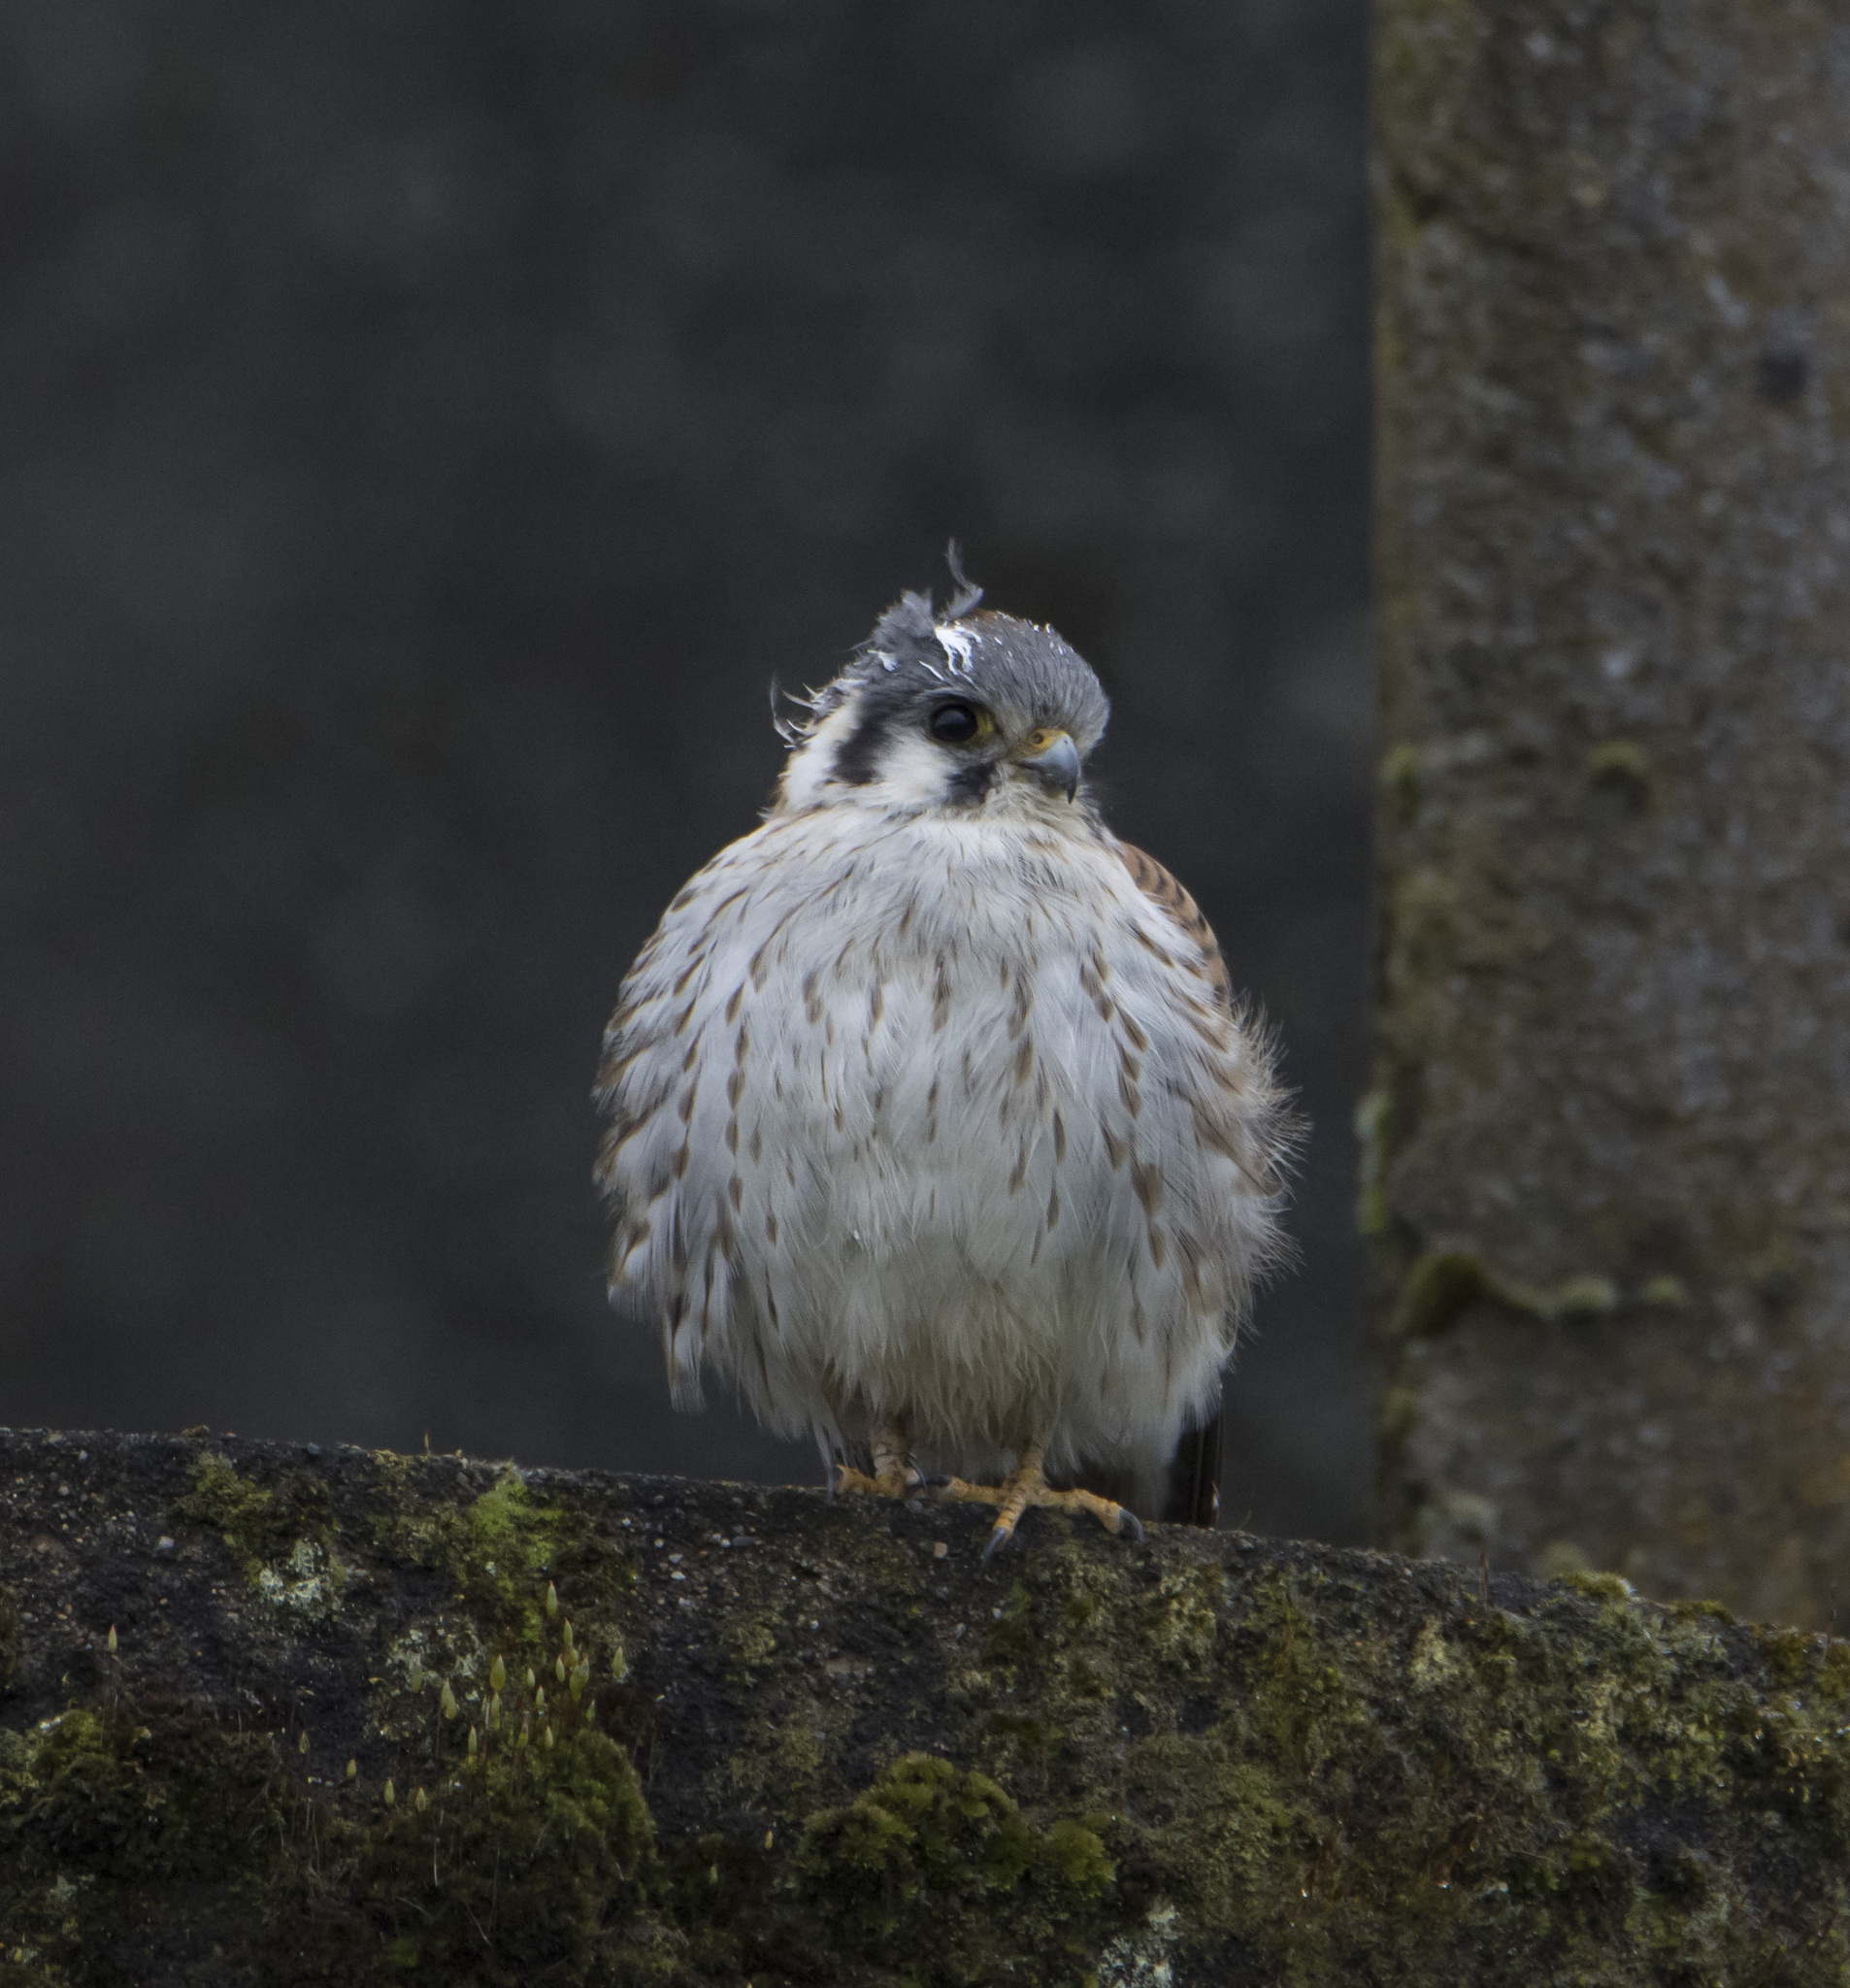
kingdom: Animalia
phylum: Chordata
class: Aves
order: Falconiformes
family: Falconidae
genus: Falco
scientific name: Falco sparverius
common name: American kestrel
